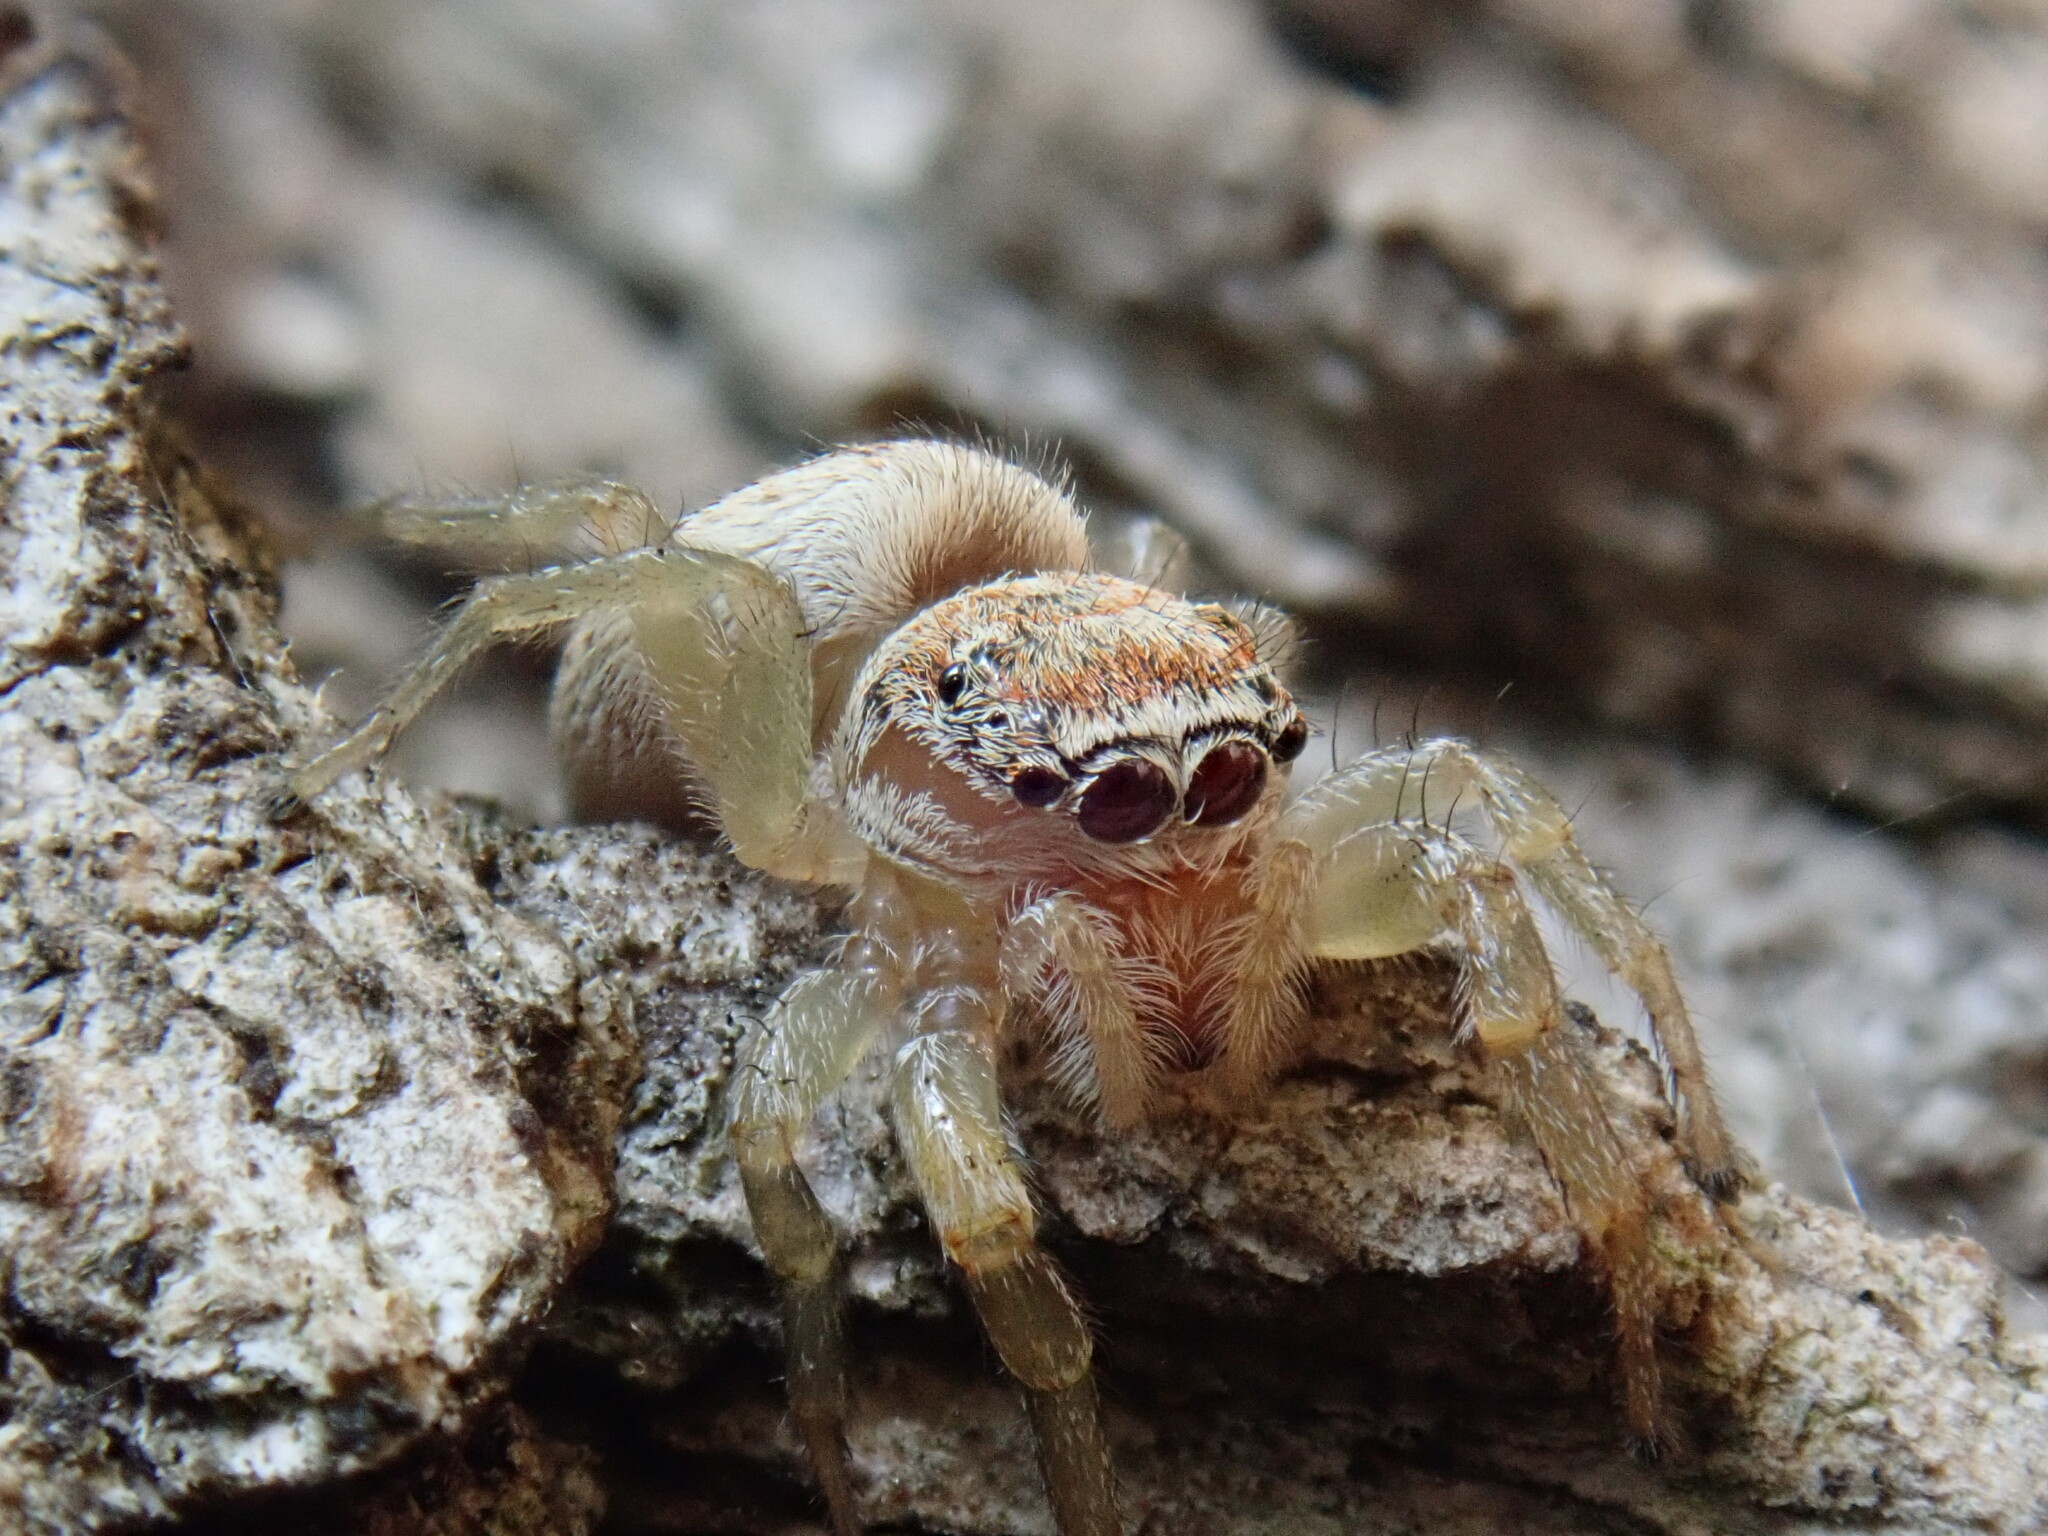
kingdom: Animalia
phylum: Arthropoda
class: Arachnida
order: Araneae
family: Salticidae
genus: Icius
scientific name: Icius hamatus
